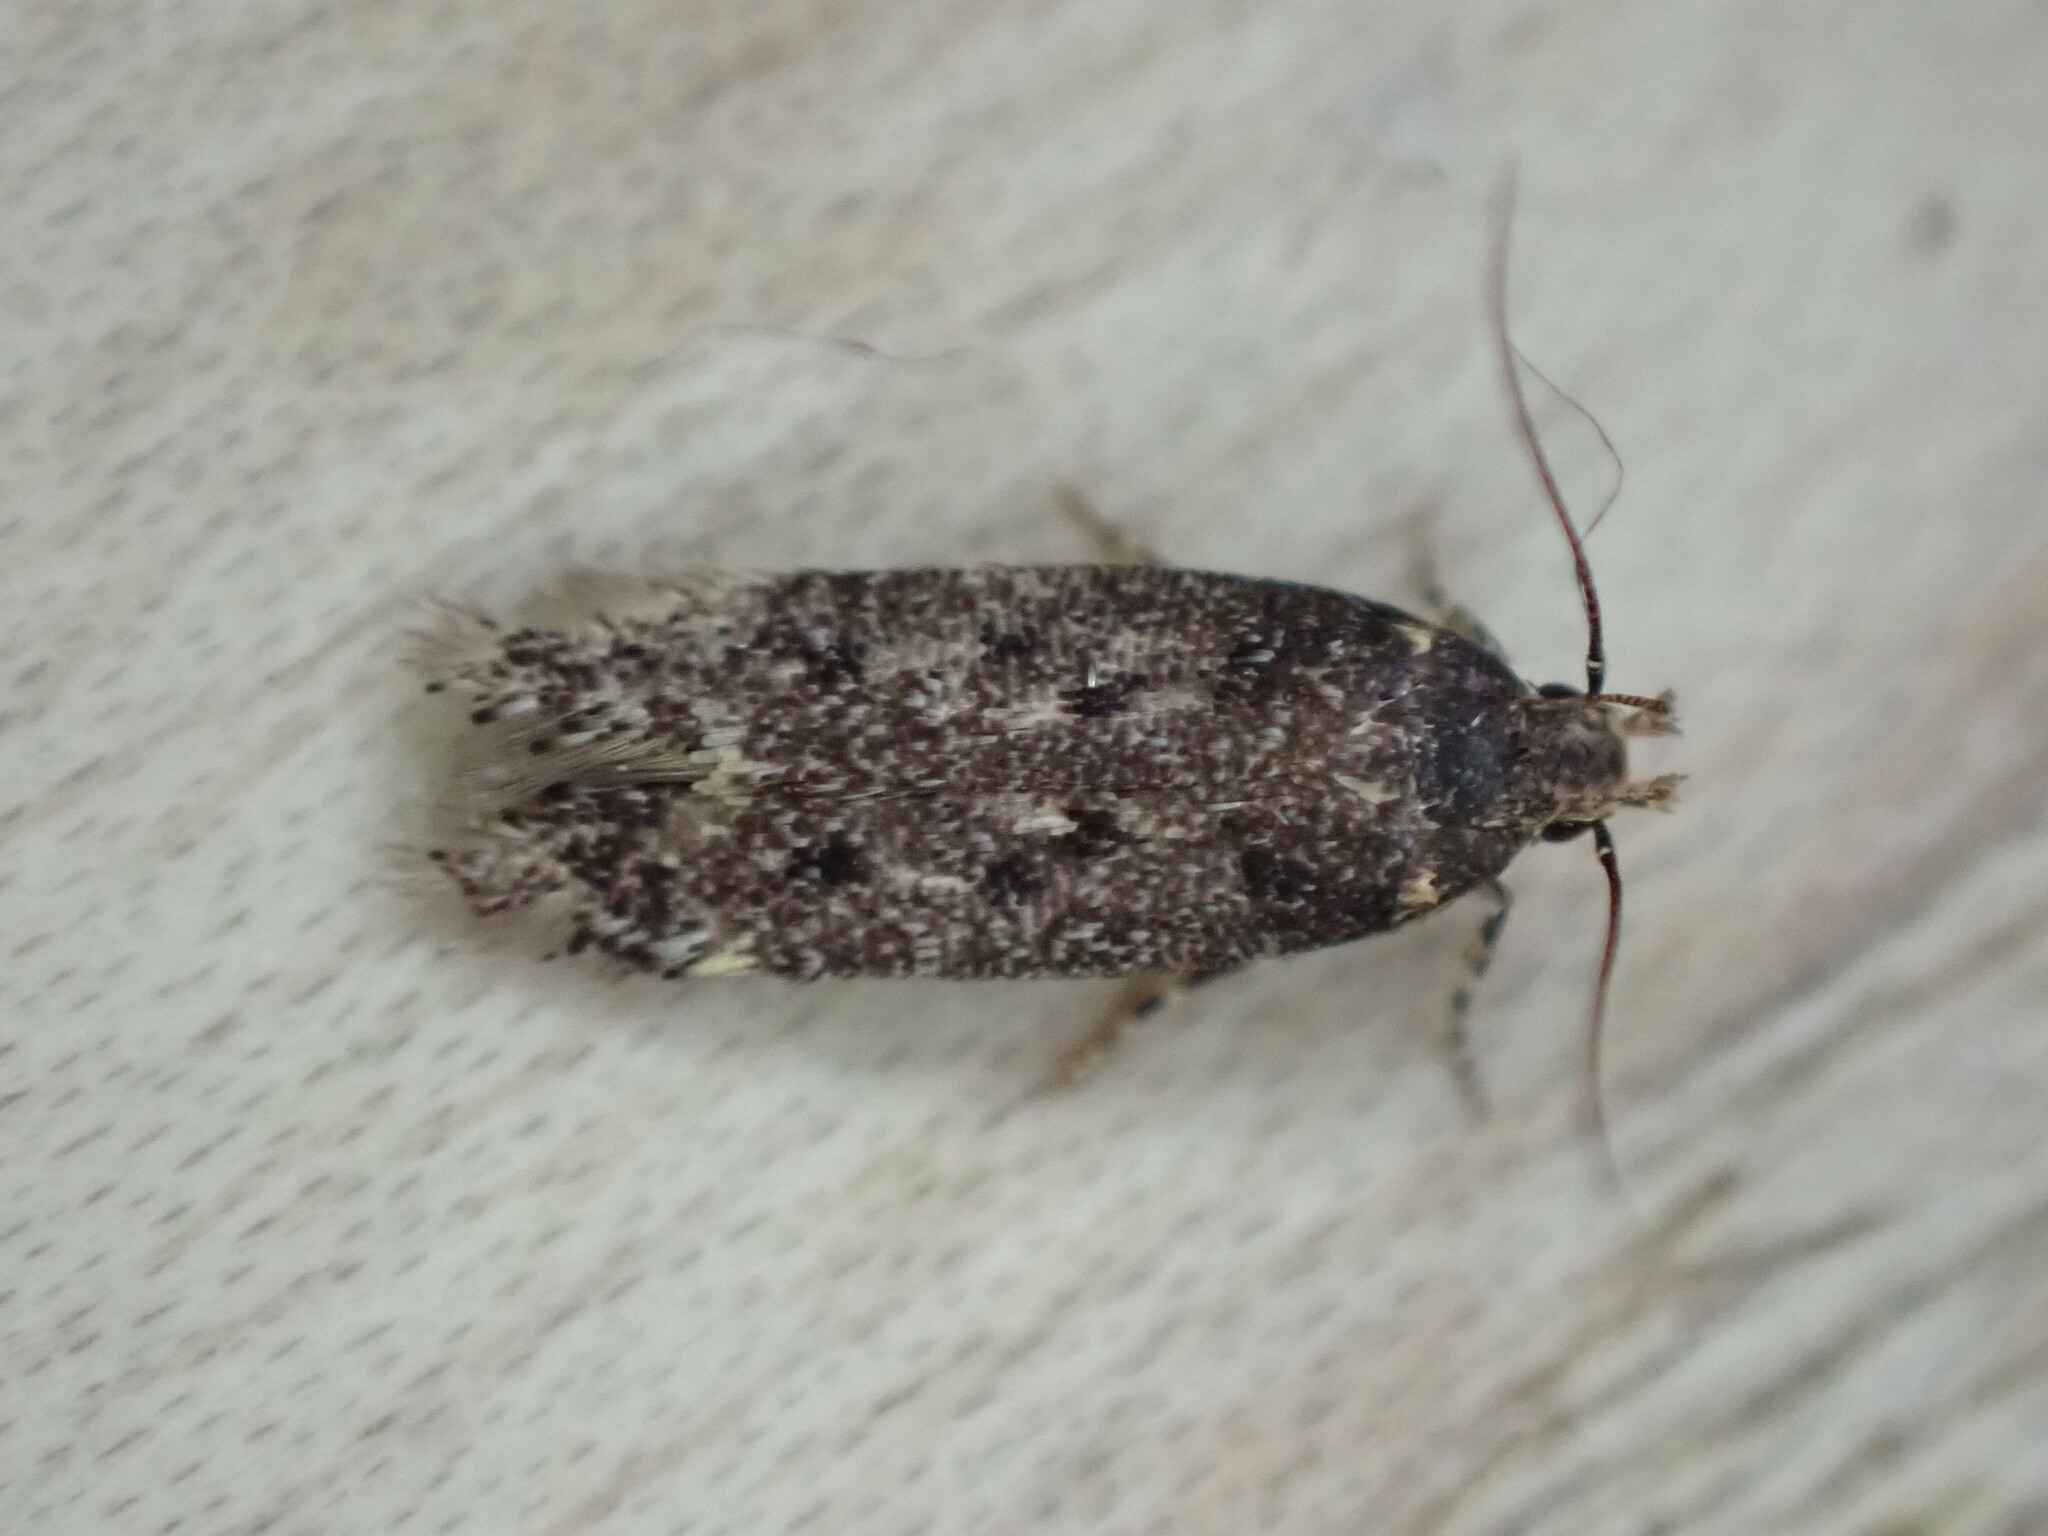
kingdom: Animalia
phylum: Arthropoda
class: Insecta
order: Lepidoptera
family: Gelechiidae
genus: Bryotropha
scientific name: Bryotropha affinis
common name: Dark groundling
